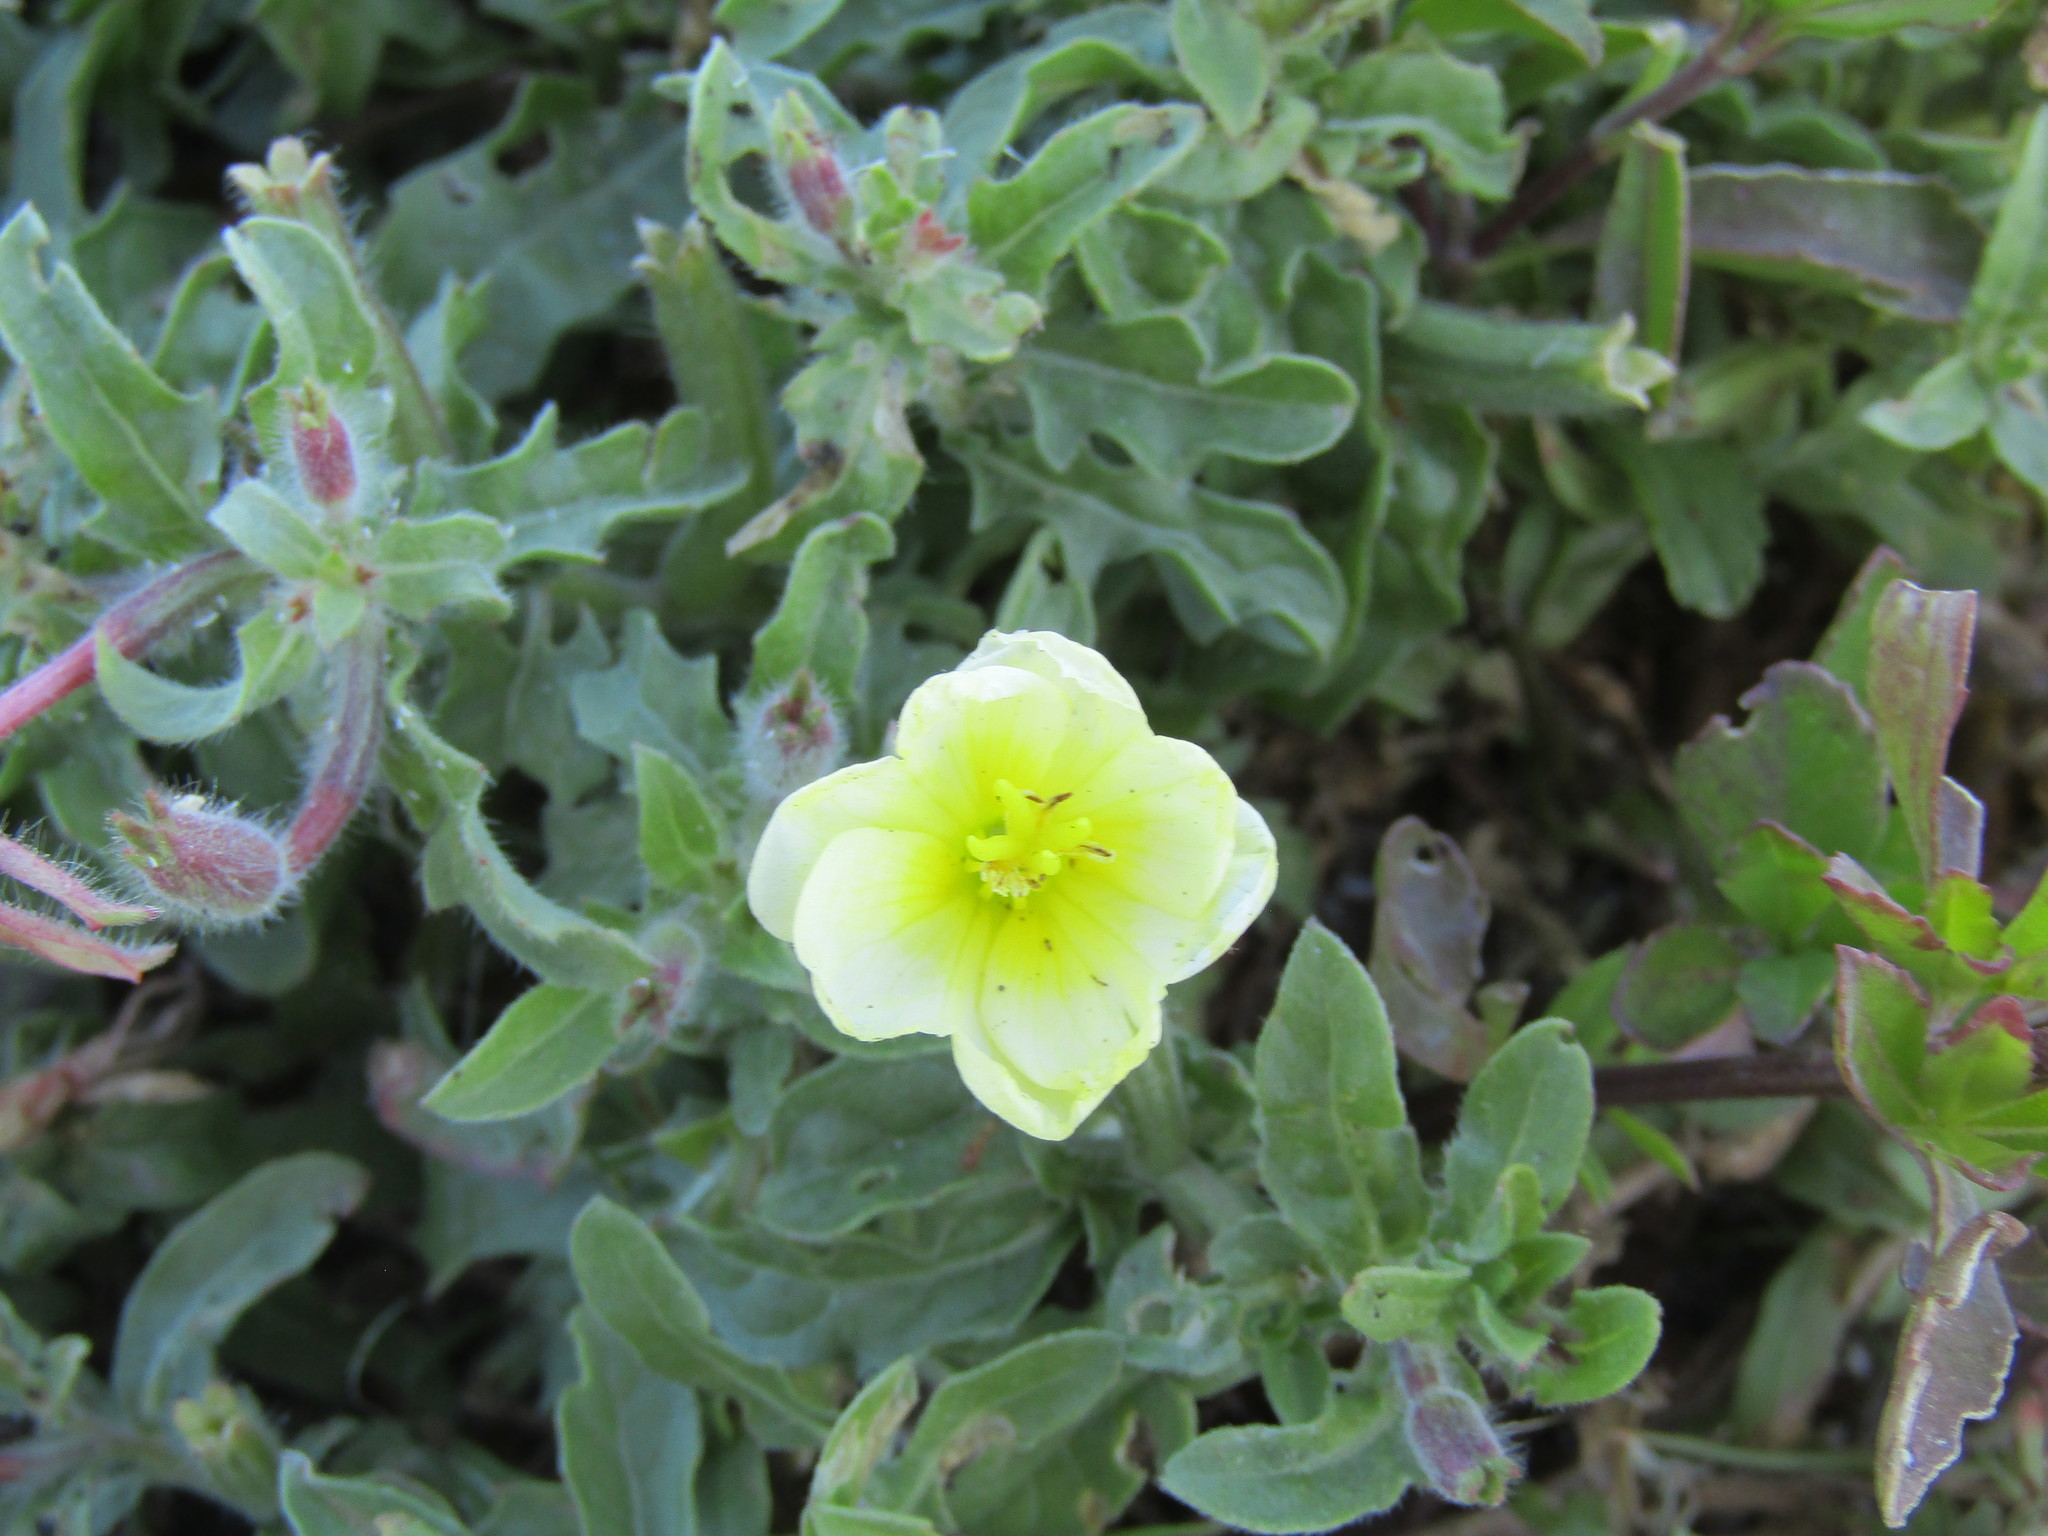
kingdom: Plantae
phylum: Tracheophyta
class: Magnoliopsida
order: Myrtales
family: Onagraceae
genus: Oenothera
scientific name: Oenothera humifusa
